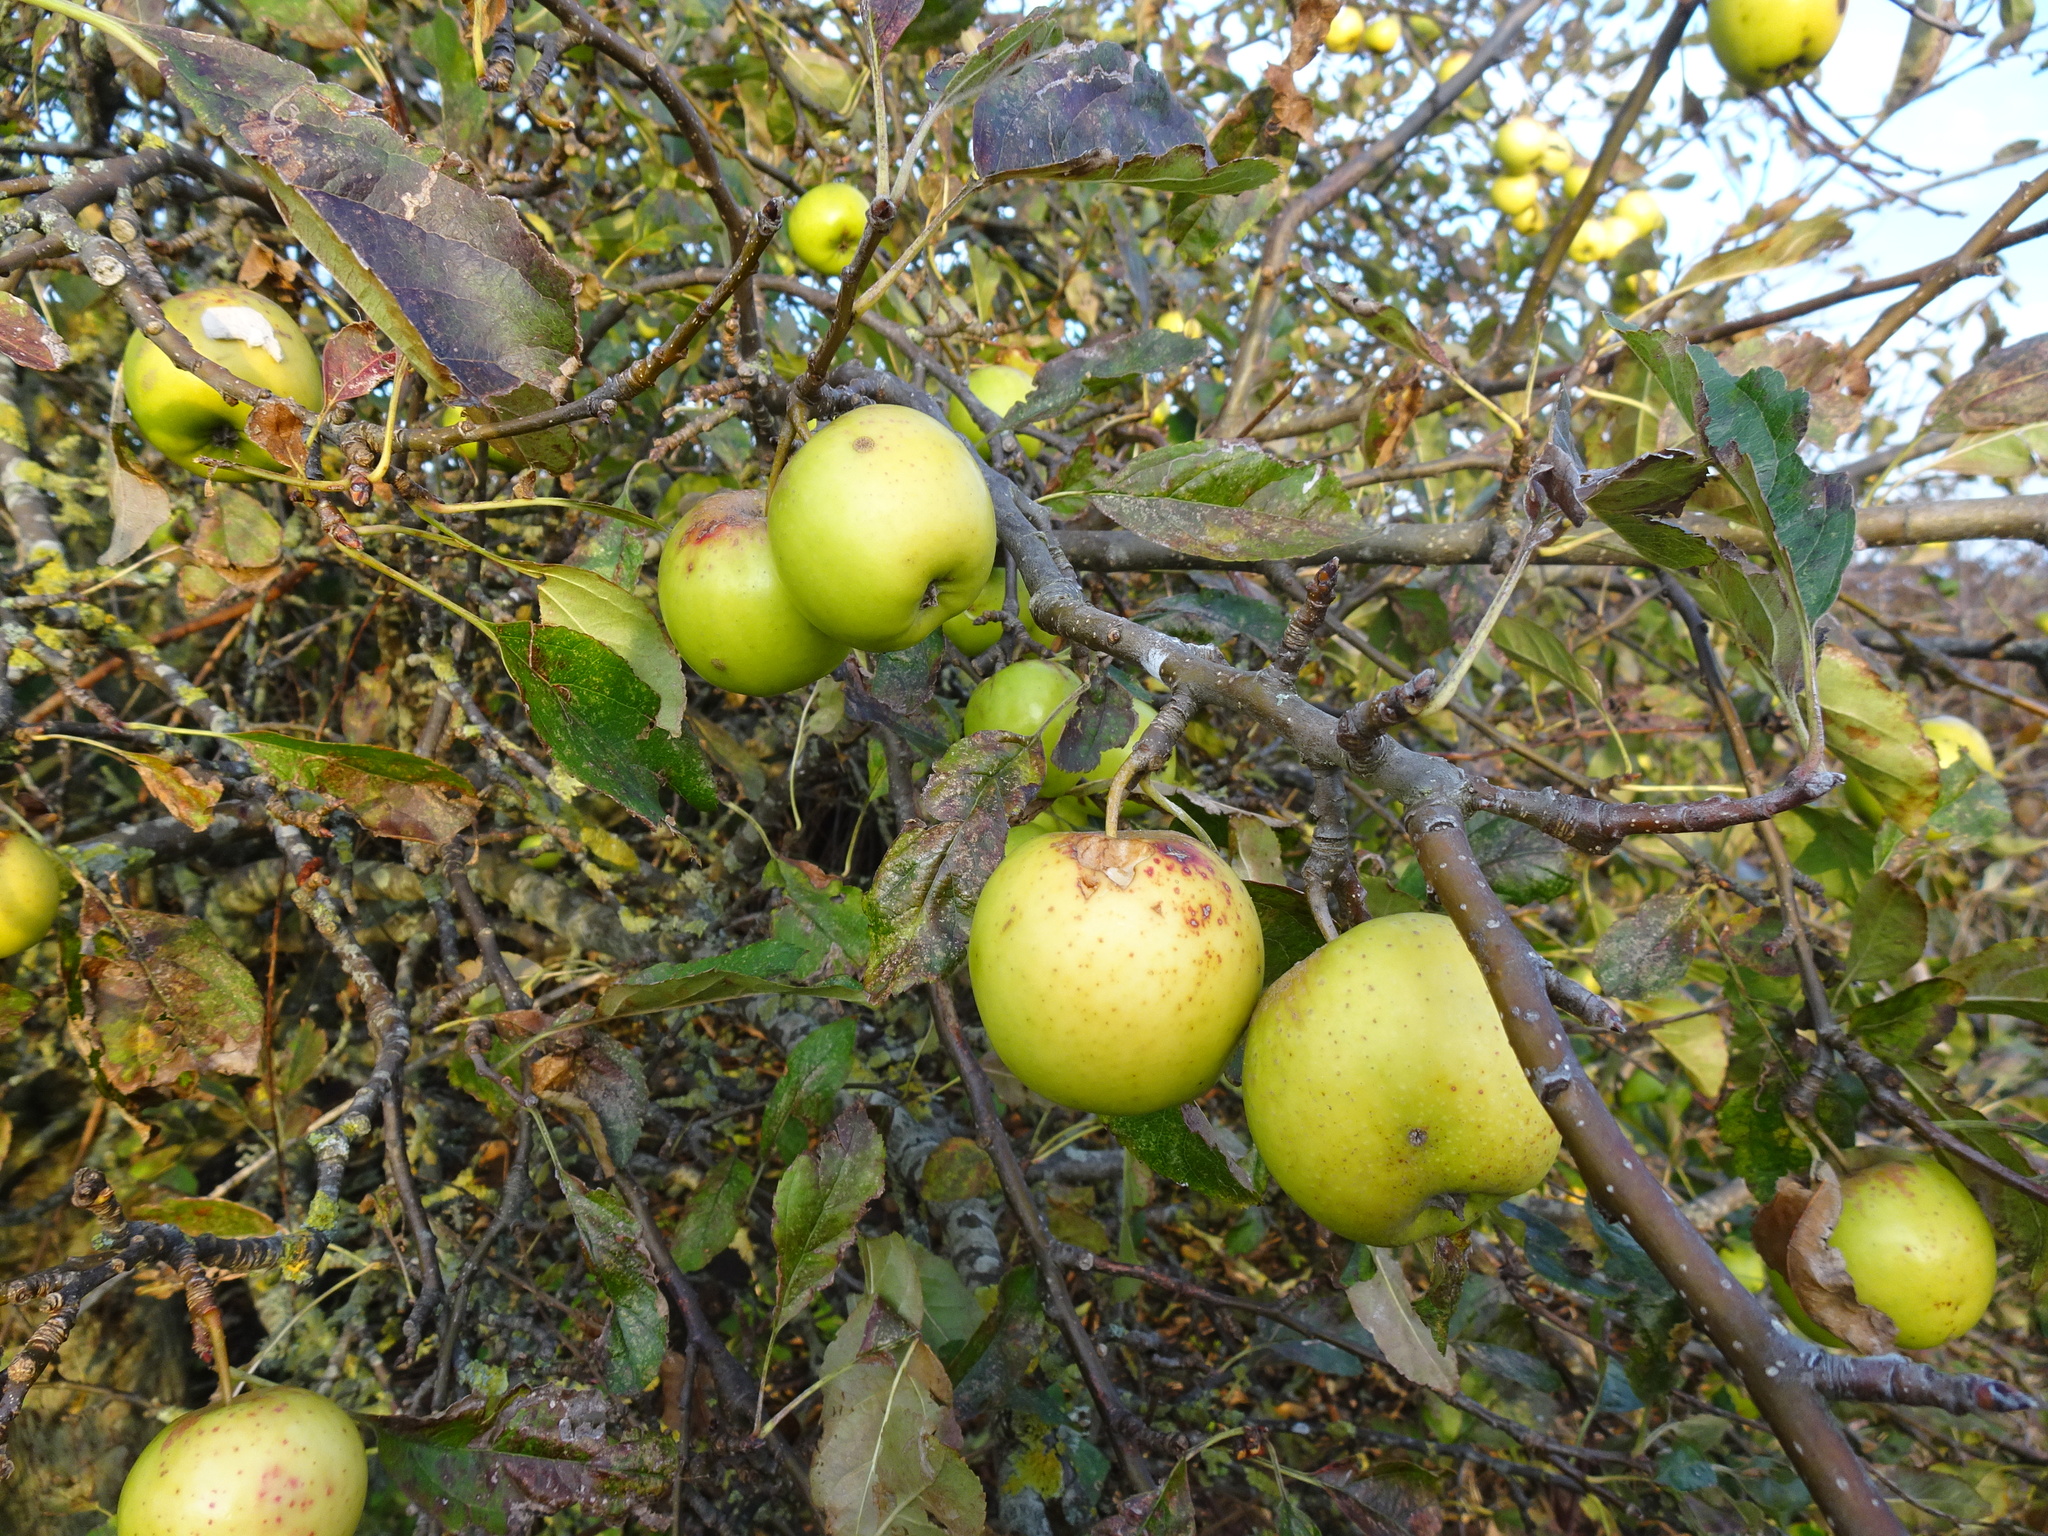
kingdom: Plantae
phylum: Tracheophyta
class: Magnoliopsida
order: Rosales
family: Rosaceae
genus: Malus
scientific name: Malus domestica
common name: Apple
